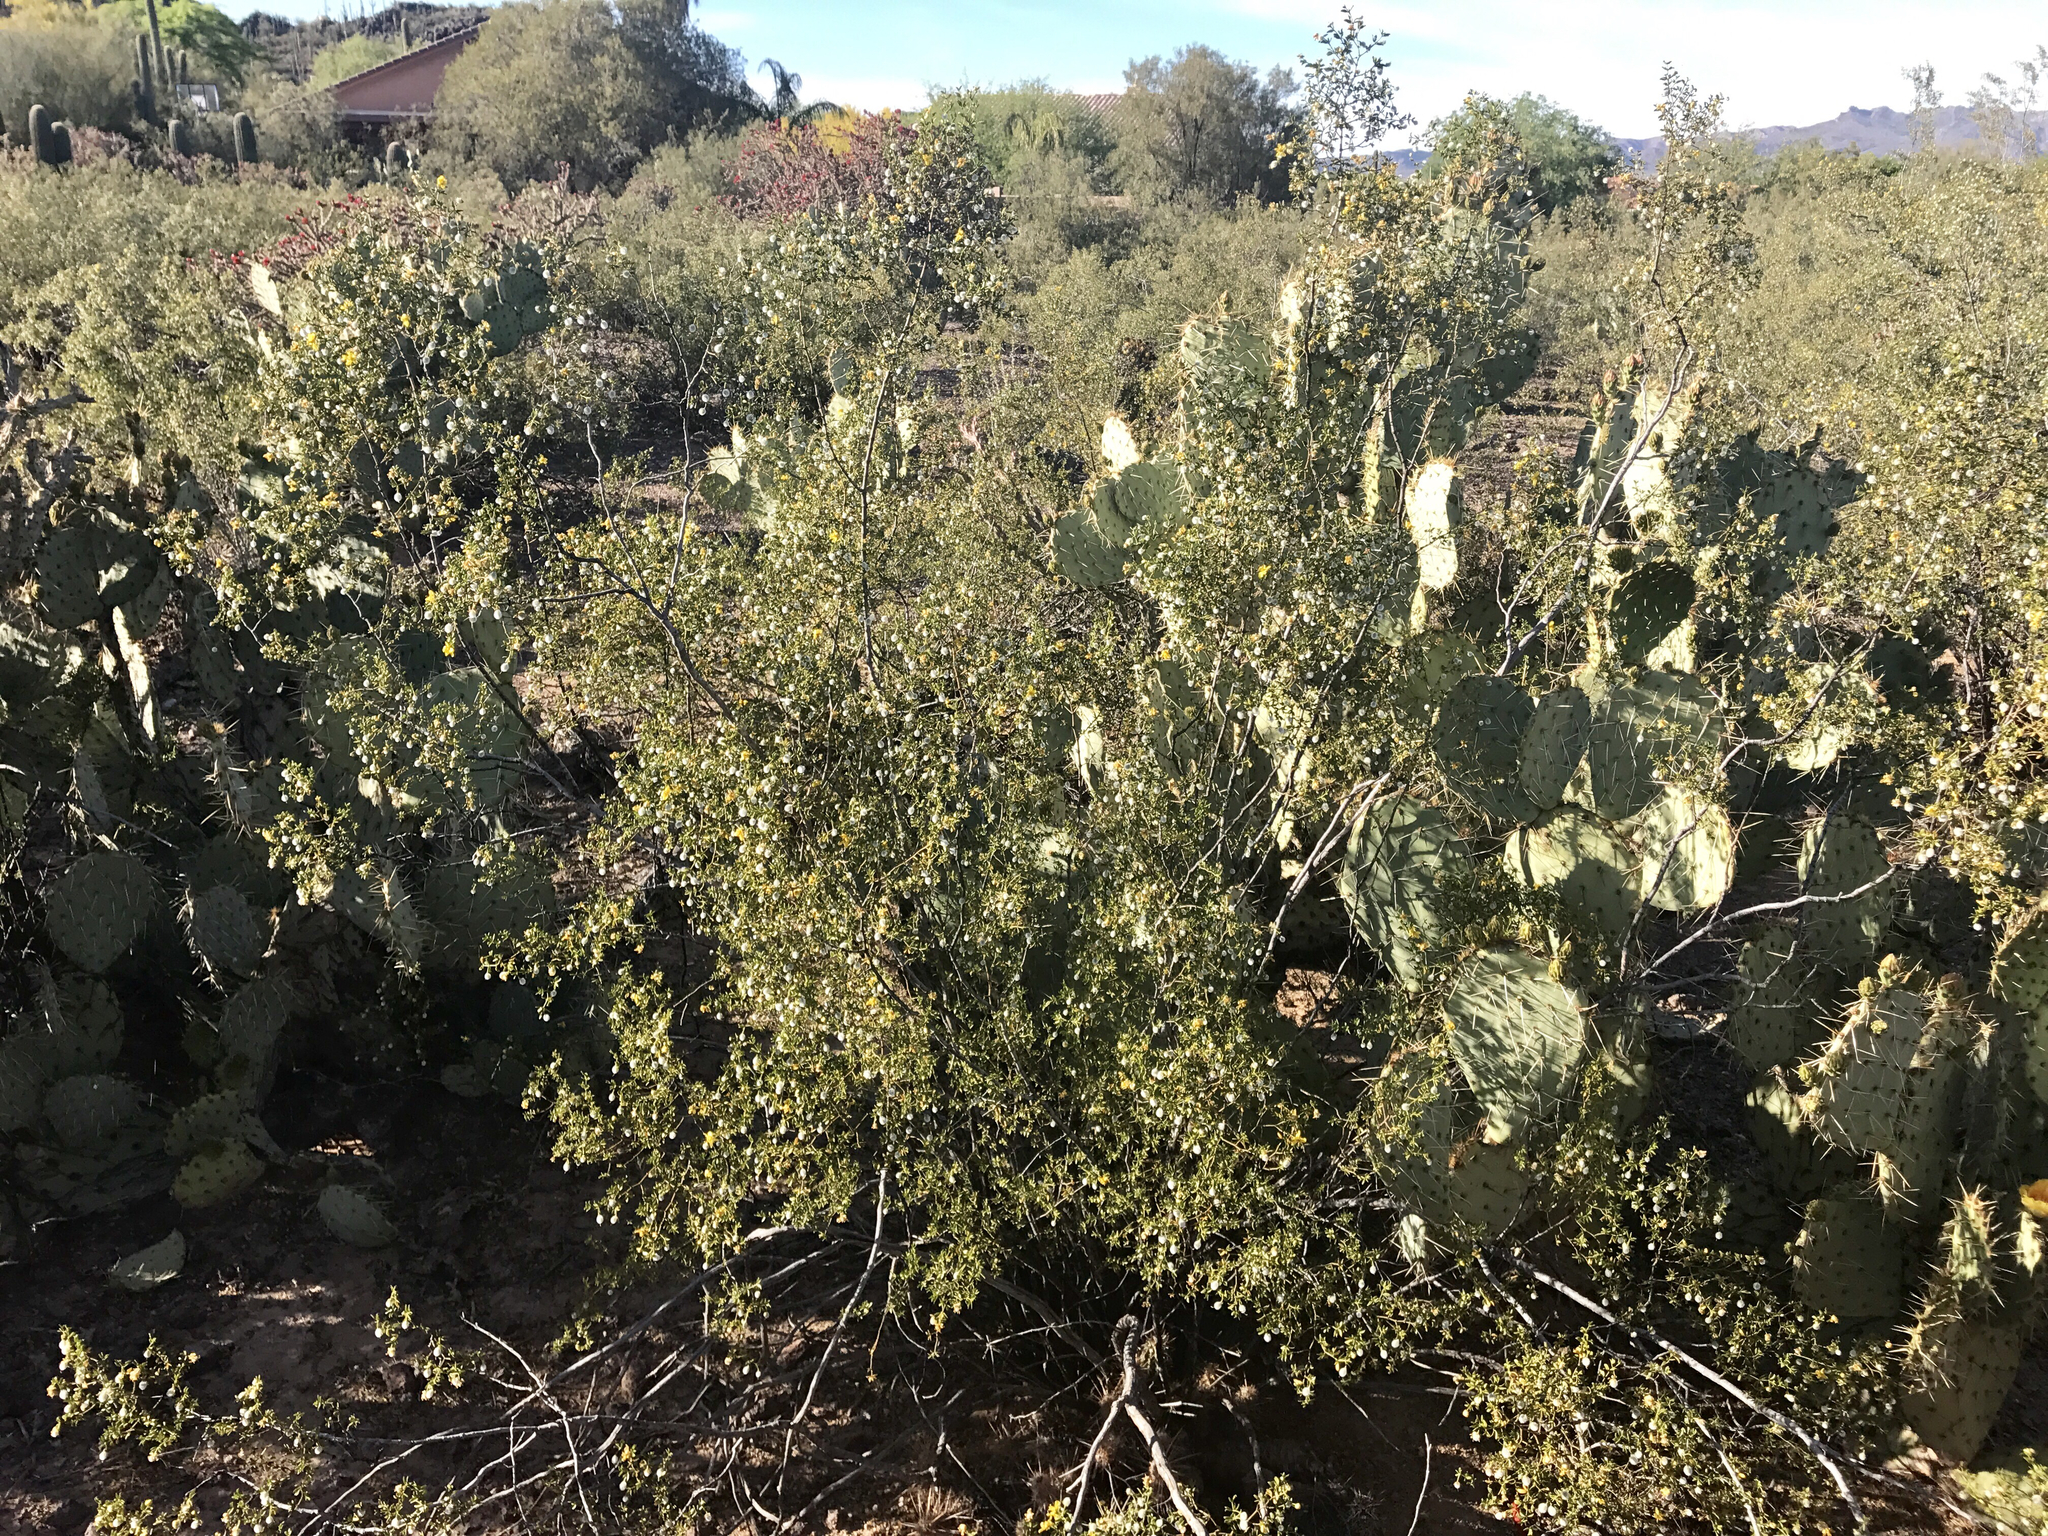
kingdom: Plantae
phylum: Tracheophyta
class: Magnoliopsida
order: Caryophyllales
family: Cactaceae
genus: Opuntia
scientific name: Opuntia engelmannii
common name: Cactus-apple
